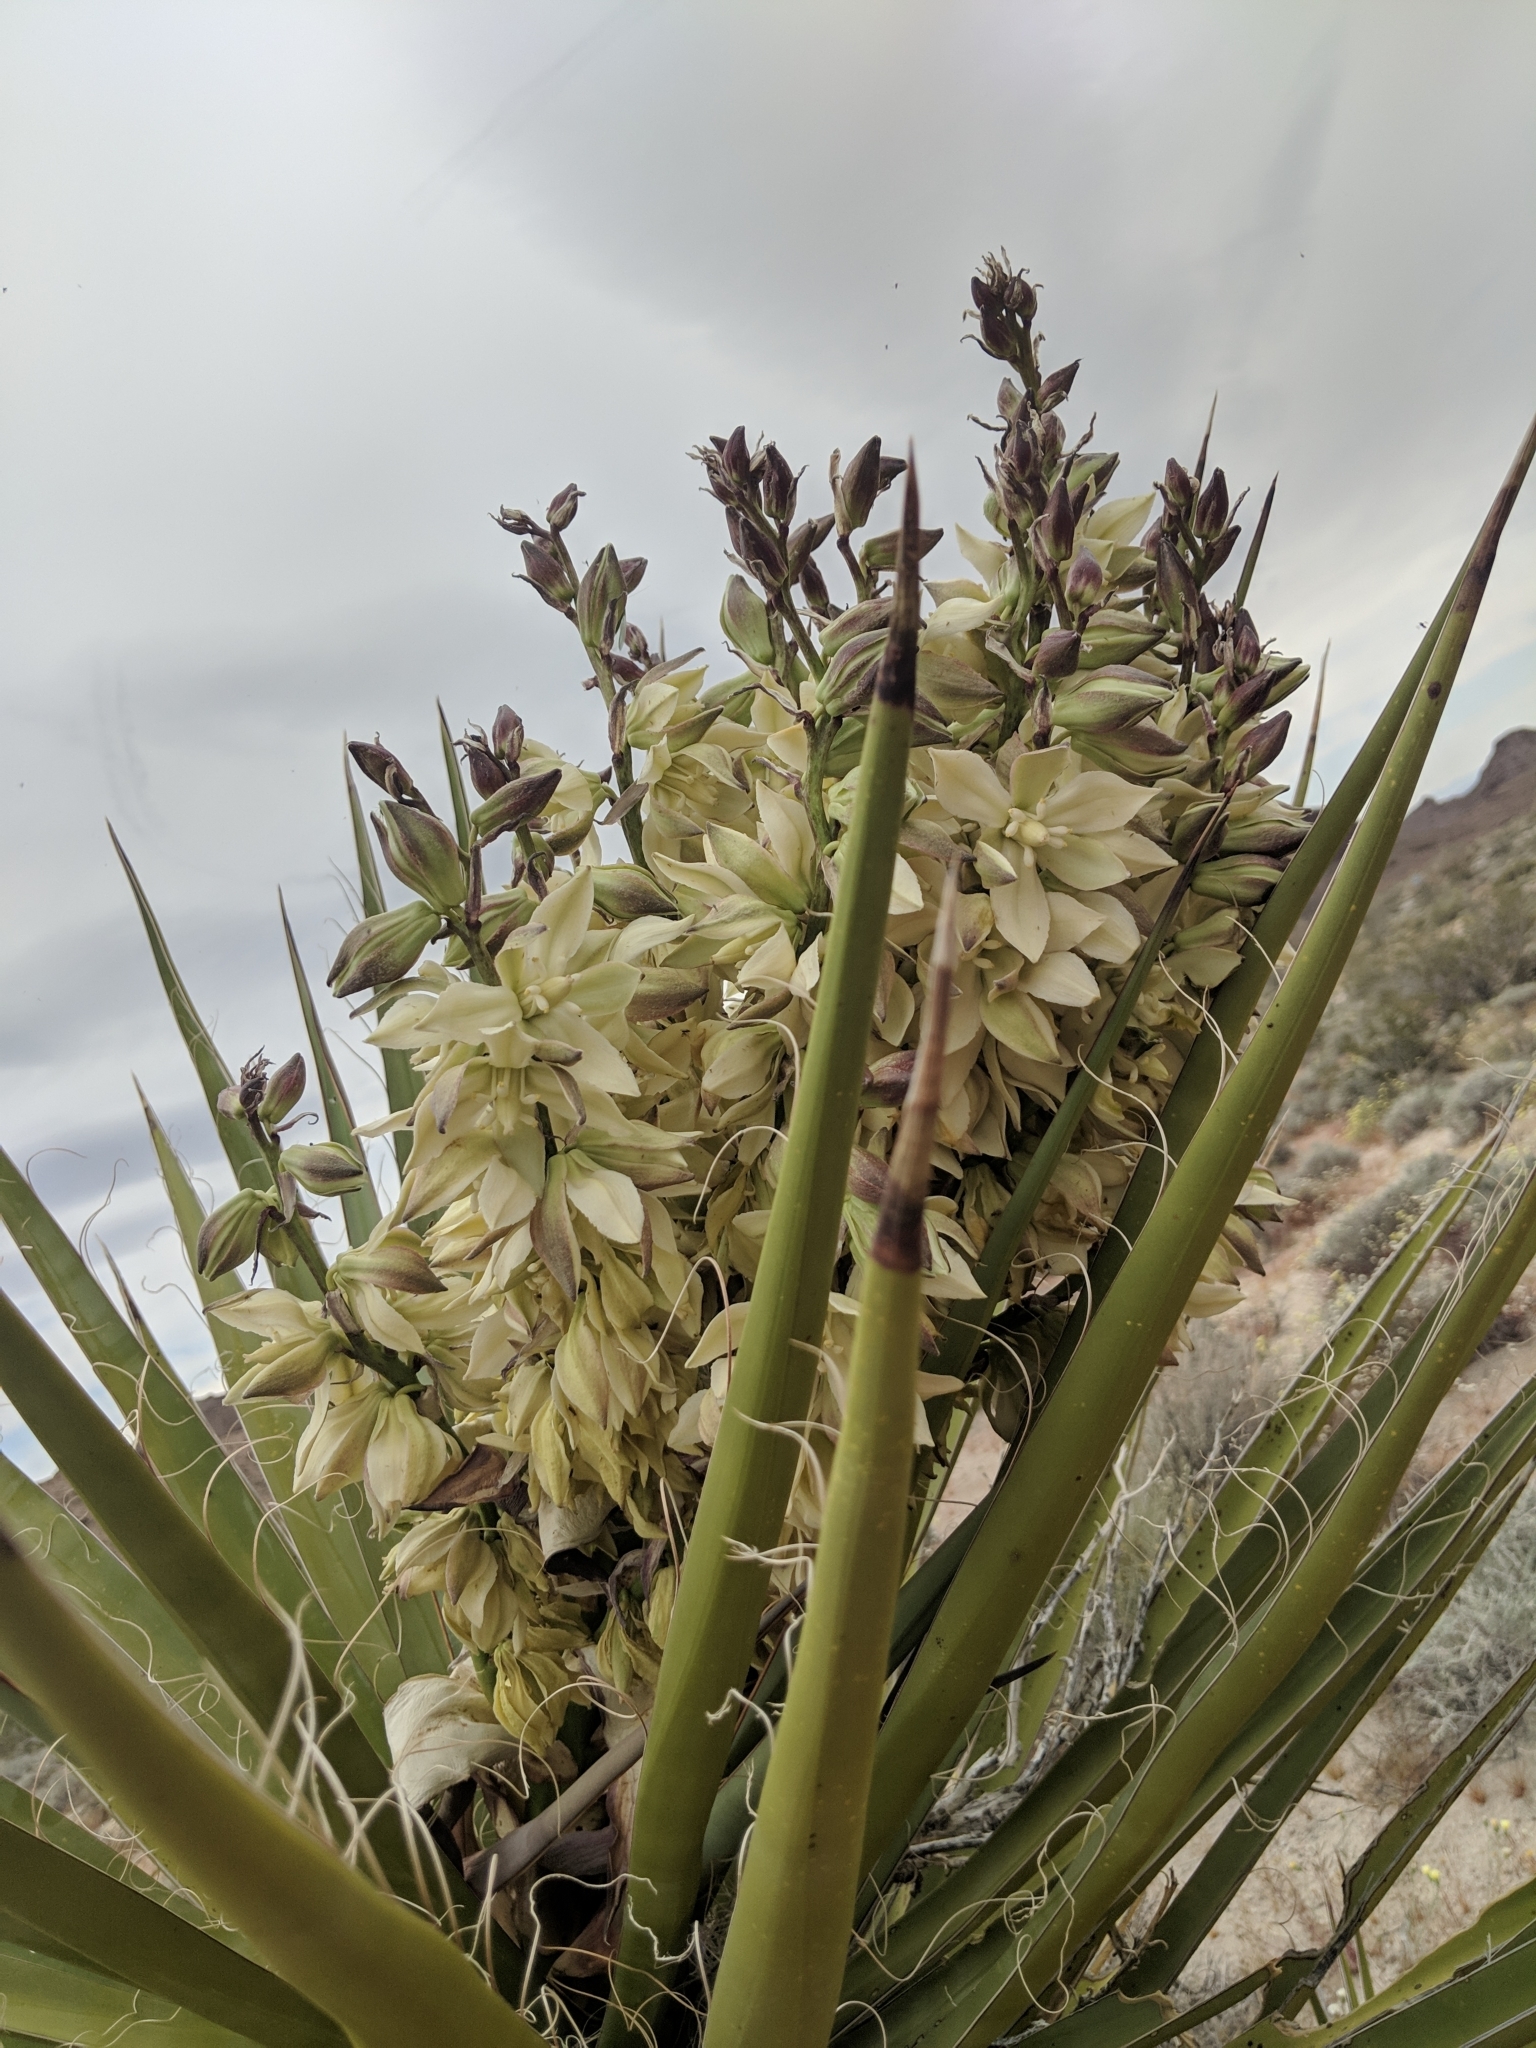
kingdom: Plantae
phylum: Tracheophyta
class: Liliopsida
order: Asparagales
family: Asparagaceae
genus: Yucca
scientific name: Yucca schidigera
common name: Mojave yucca
